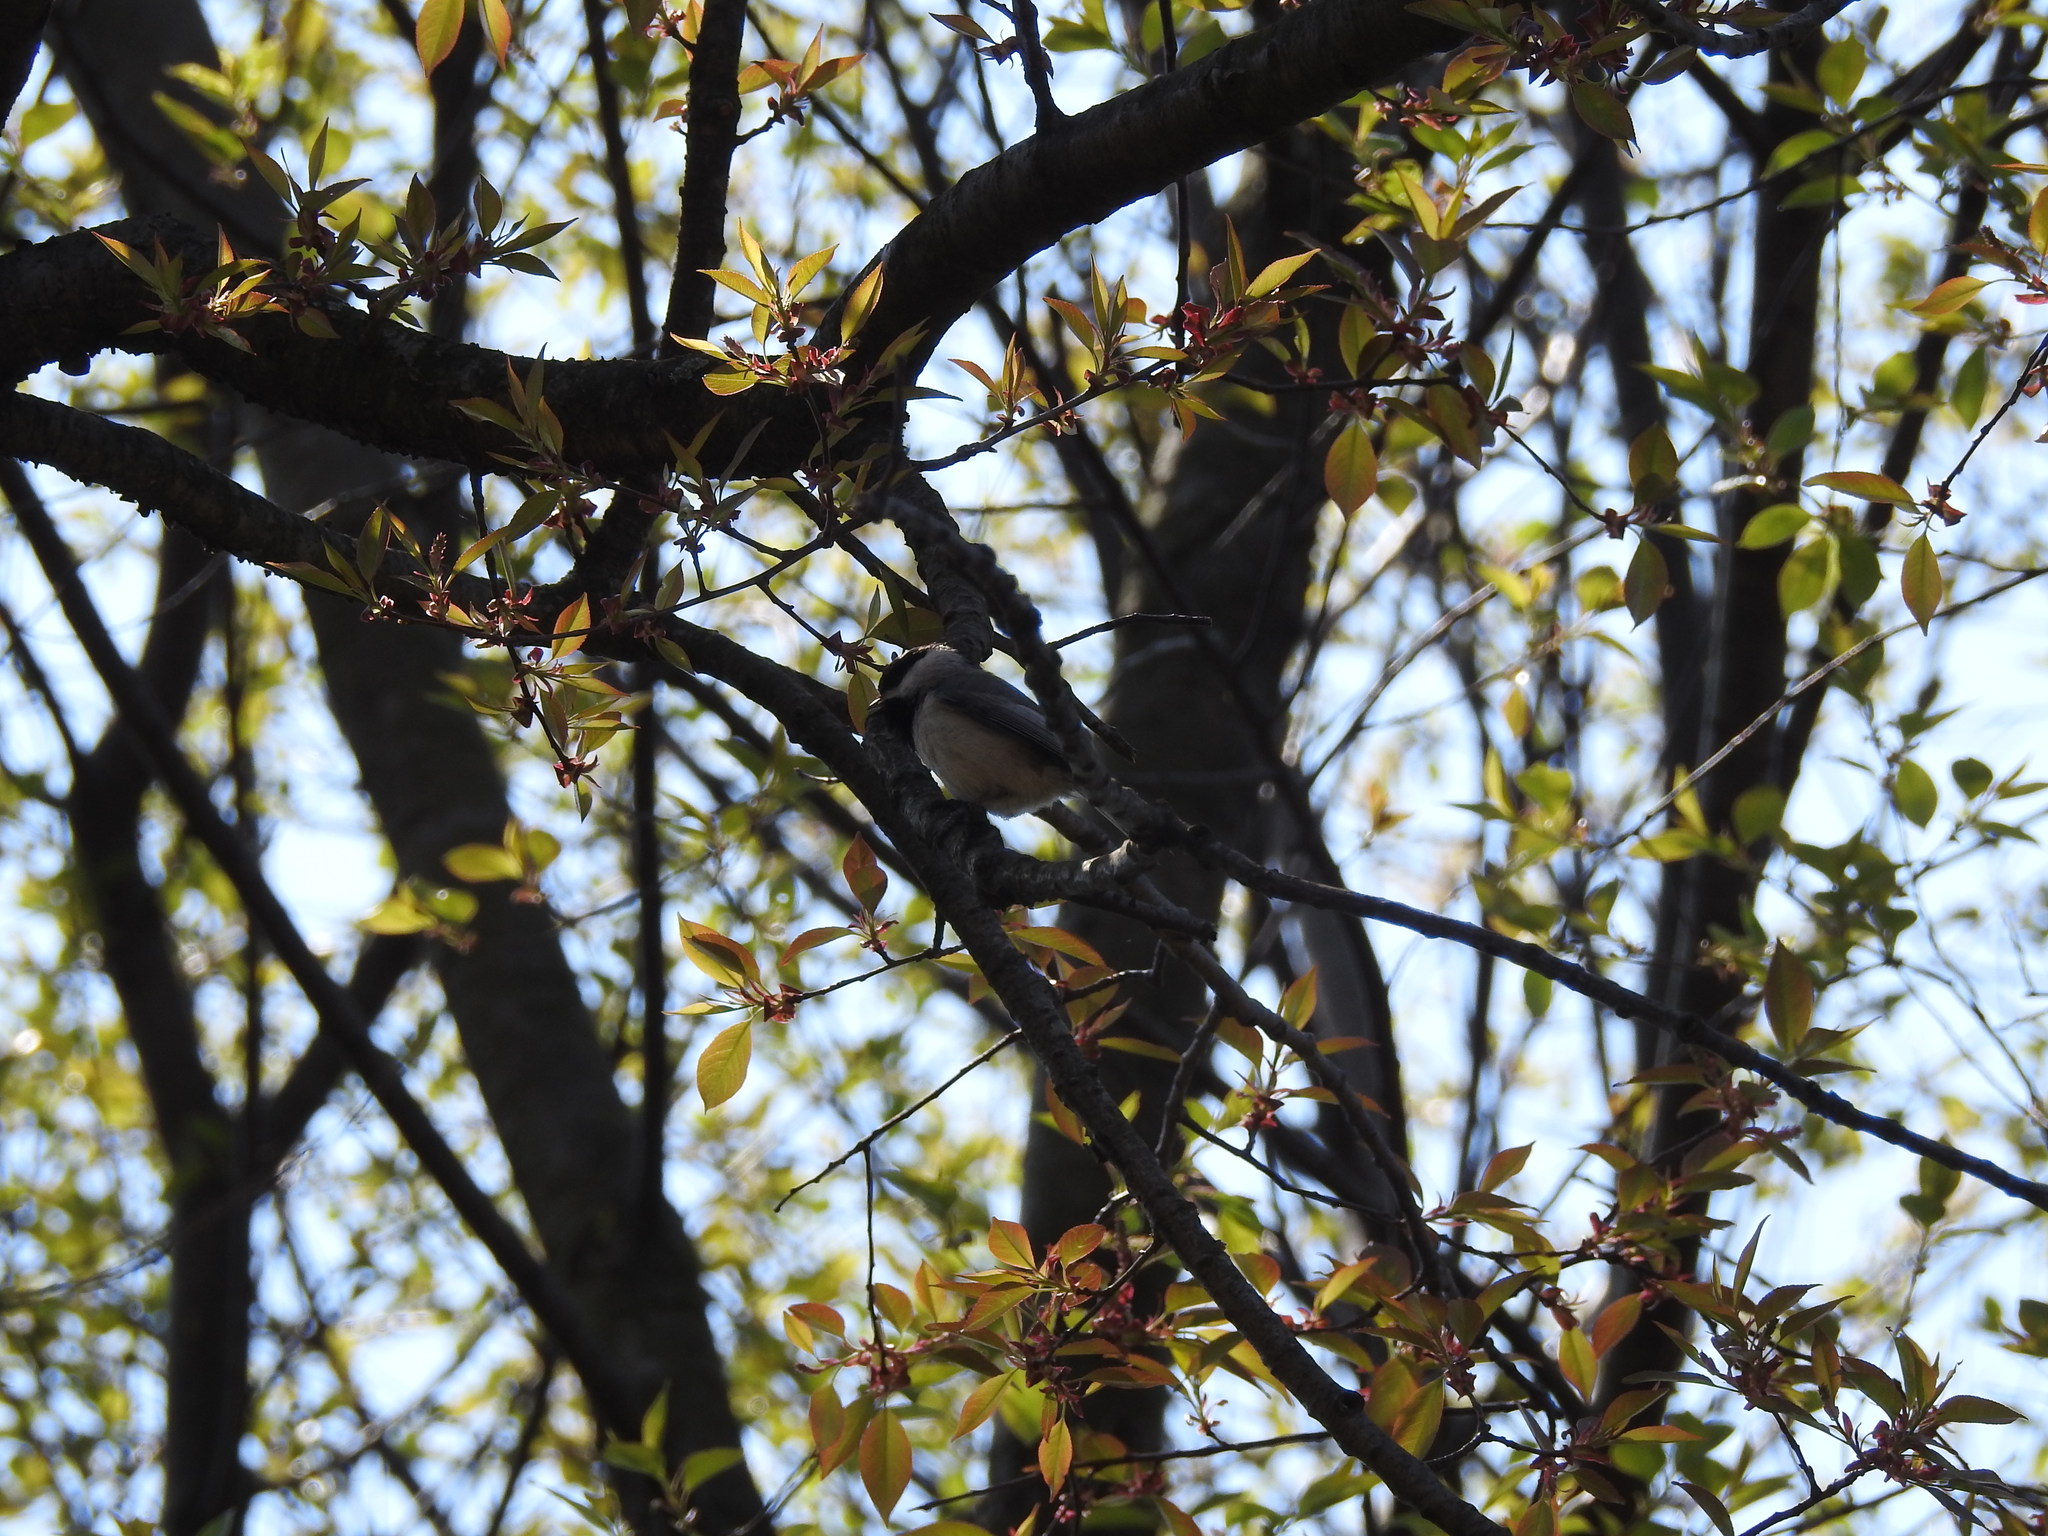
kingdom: Animalia
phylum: Chordata
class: Aves
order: Passeriformes
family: Paridae
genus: Poecile
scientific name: Poecile carolinensis
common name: Carolina chickadee
